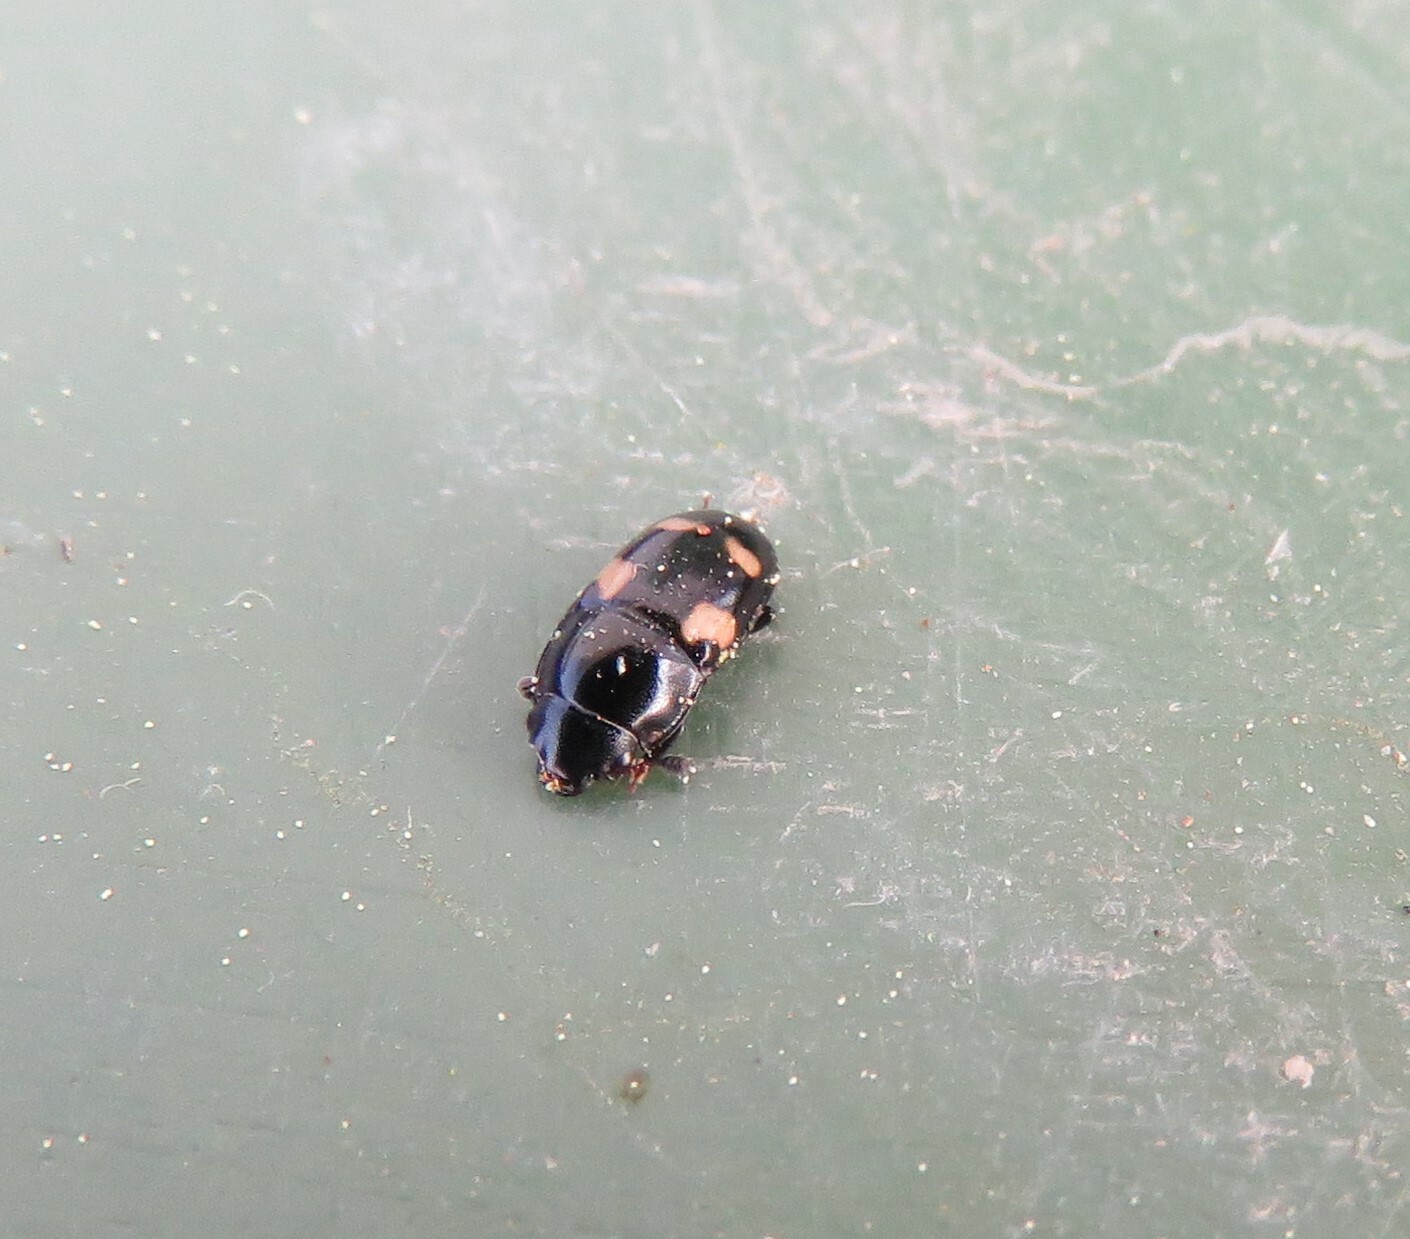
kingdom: Animalia
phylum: Arthropoda
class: Insecta
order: Coleoptera
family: Nitidulidae
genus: Glischrochilus
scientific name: Glischrochilus quadrisignatus
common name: Picnic beetle
